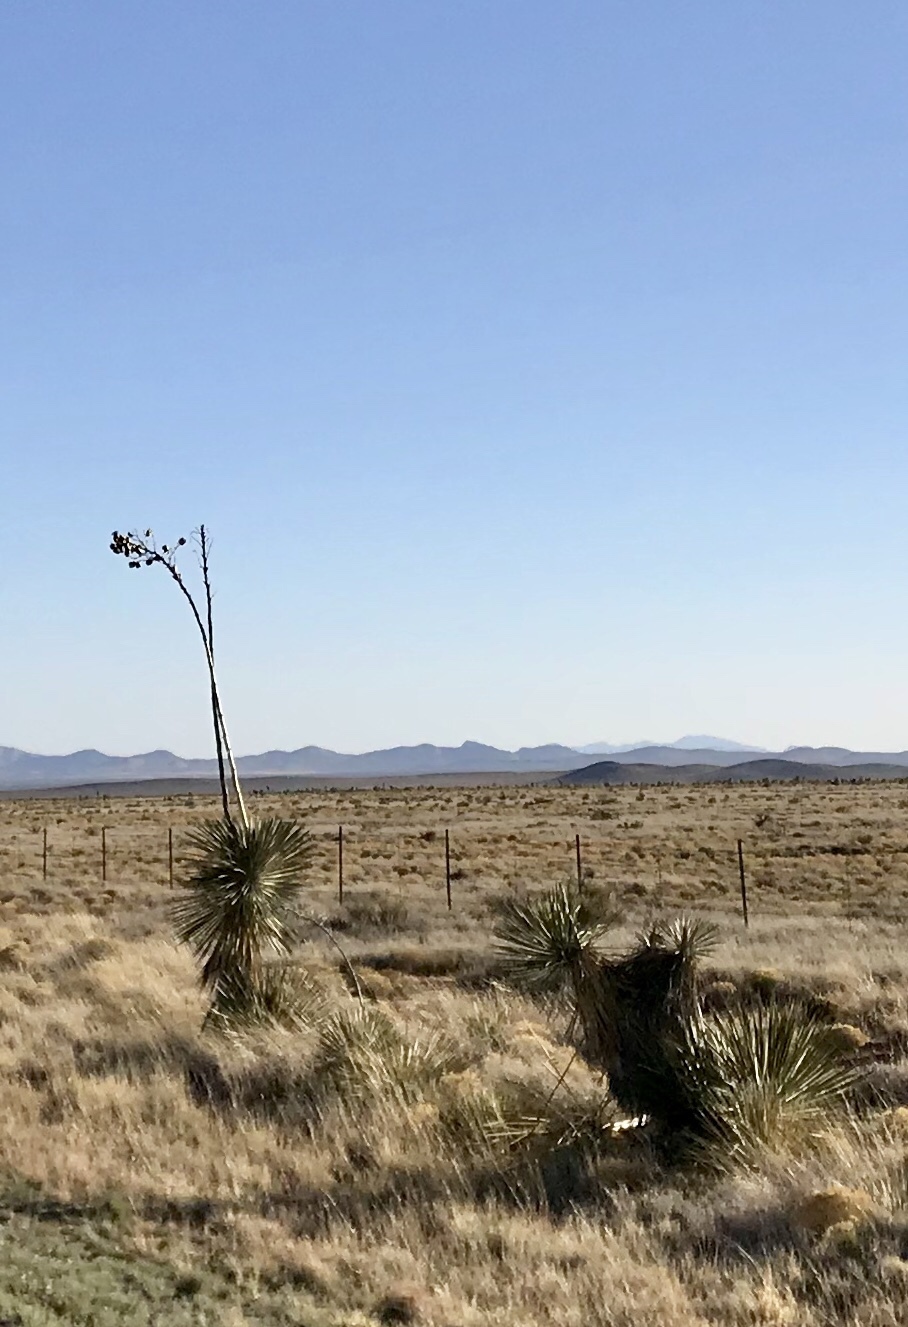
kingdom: Plantae
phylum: Tracheophyta
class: Liliopsida
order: Asparagales
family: Asparagaceae
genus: Yucca
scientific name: Yucca elata
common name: Palmella
